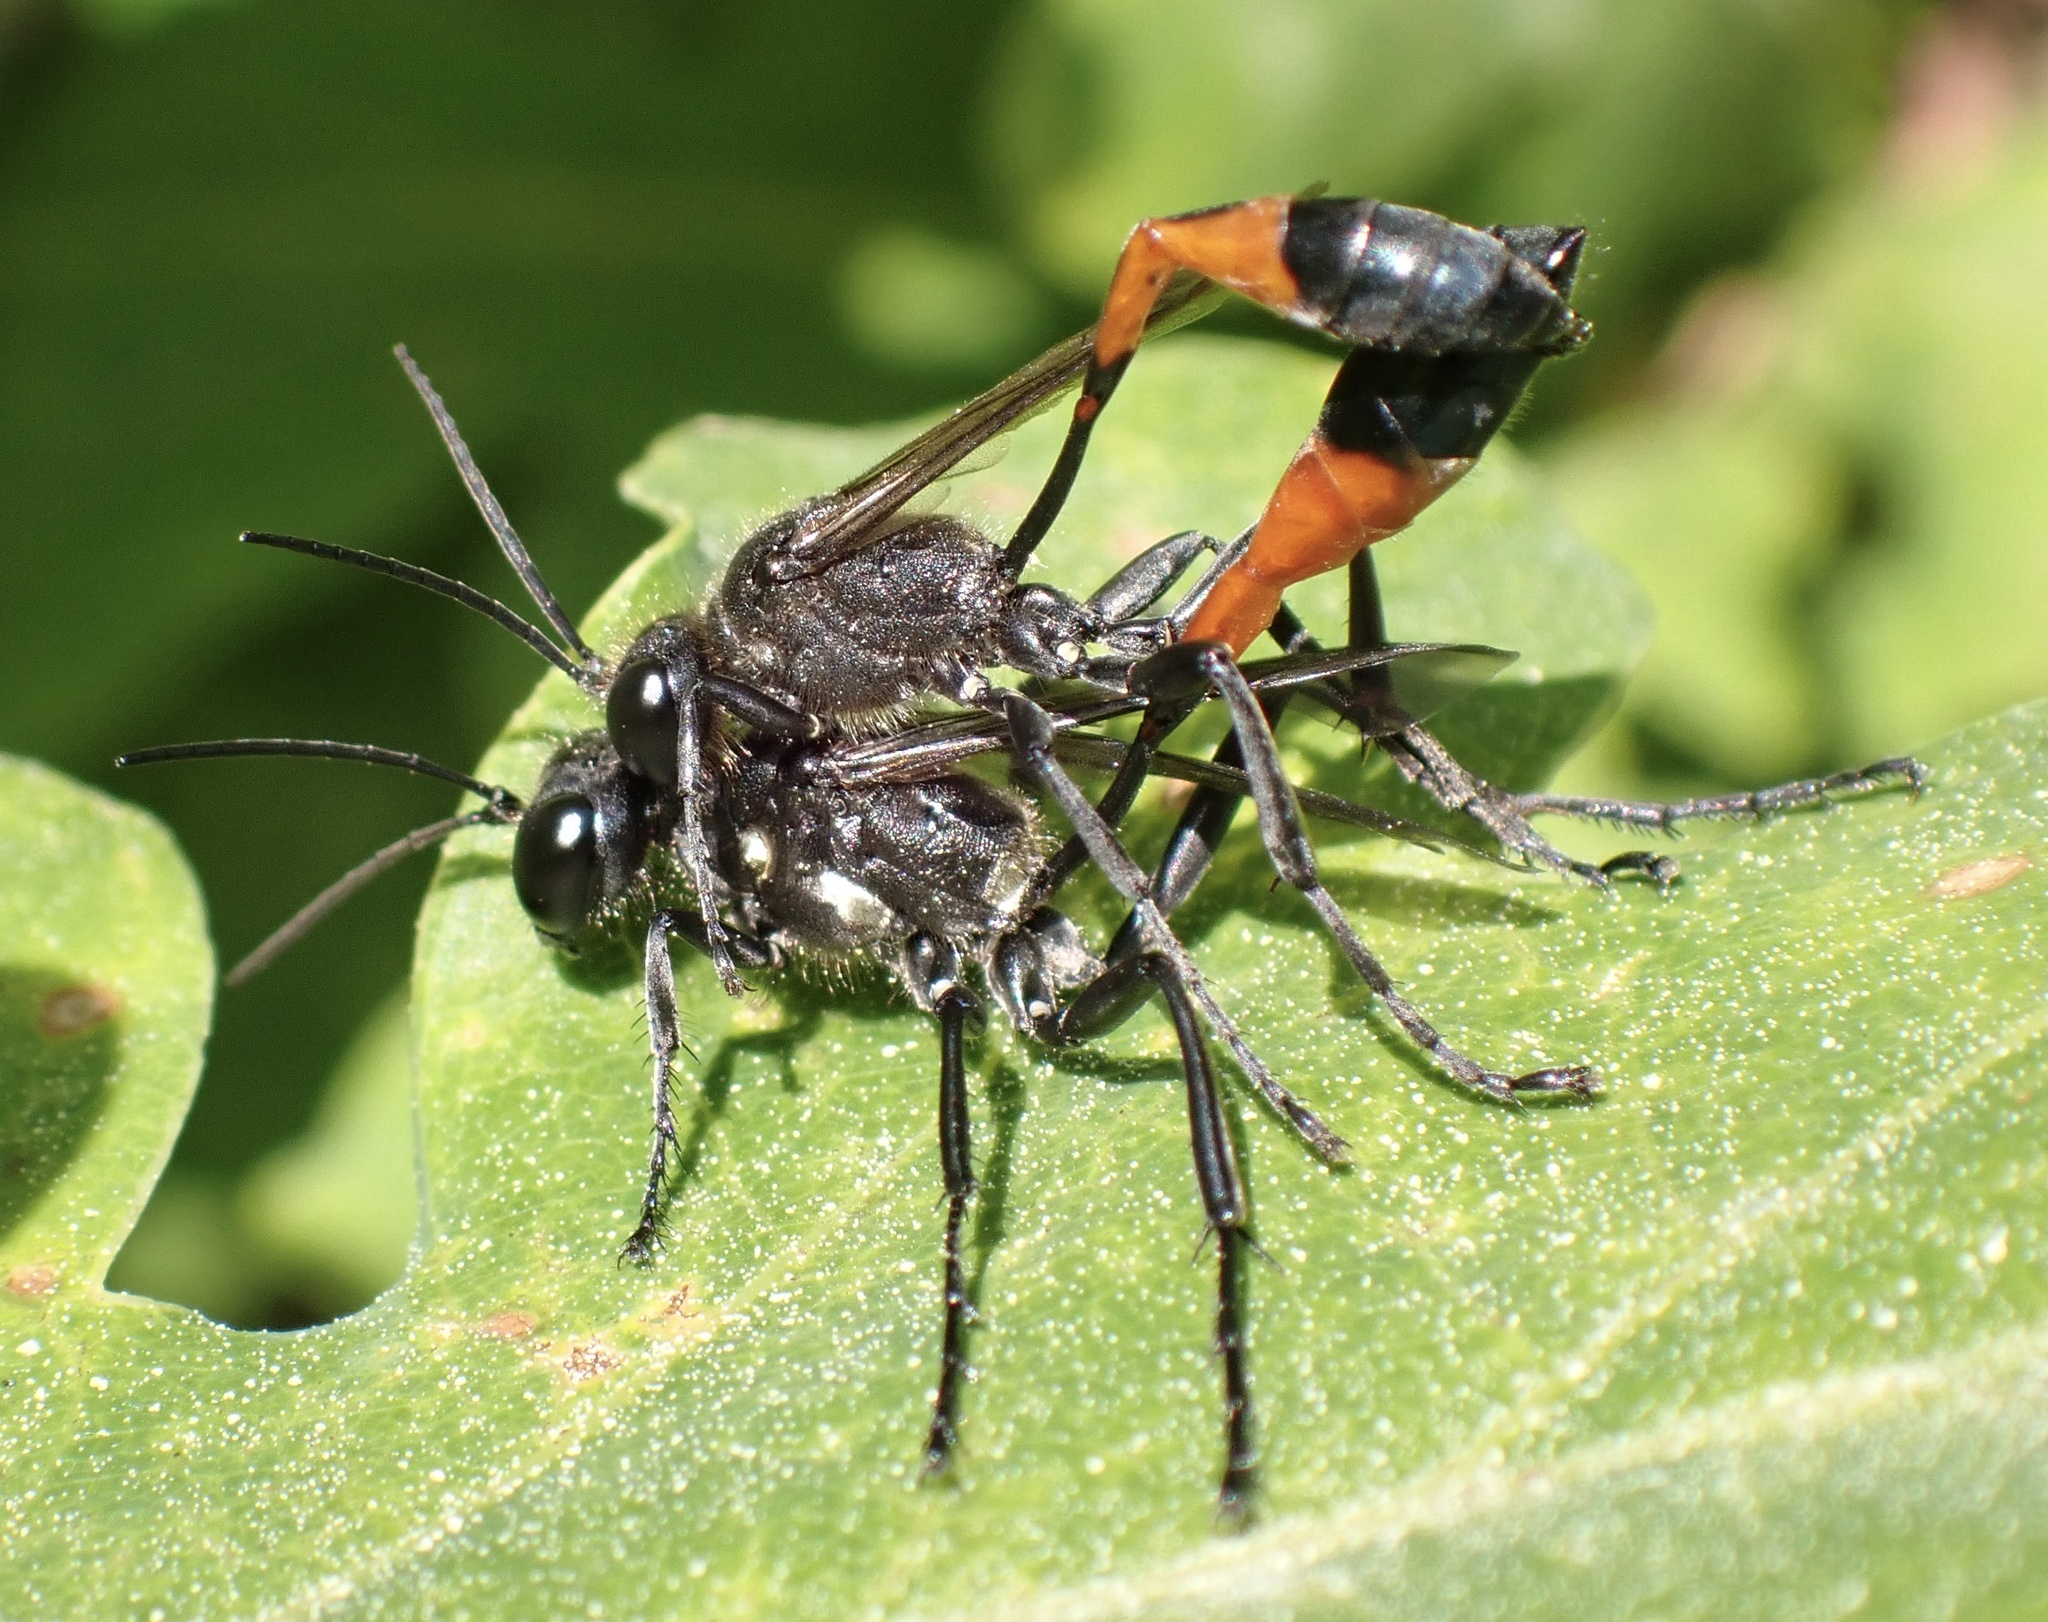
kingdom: Animalia
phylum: Arthropoda
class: Insecta
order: Hymenoptera
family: Sphecidae
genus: Ammophila
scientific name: Ammophila sabulosa
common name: Red banded sand wasp
